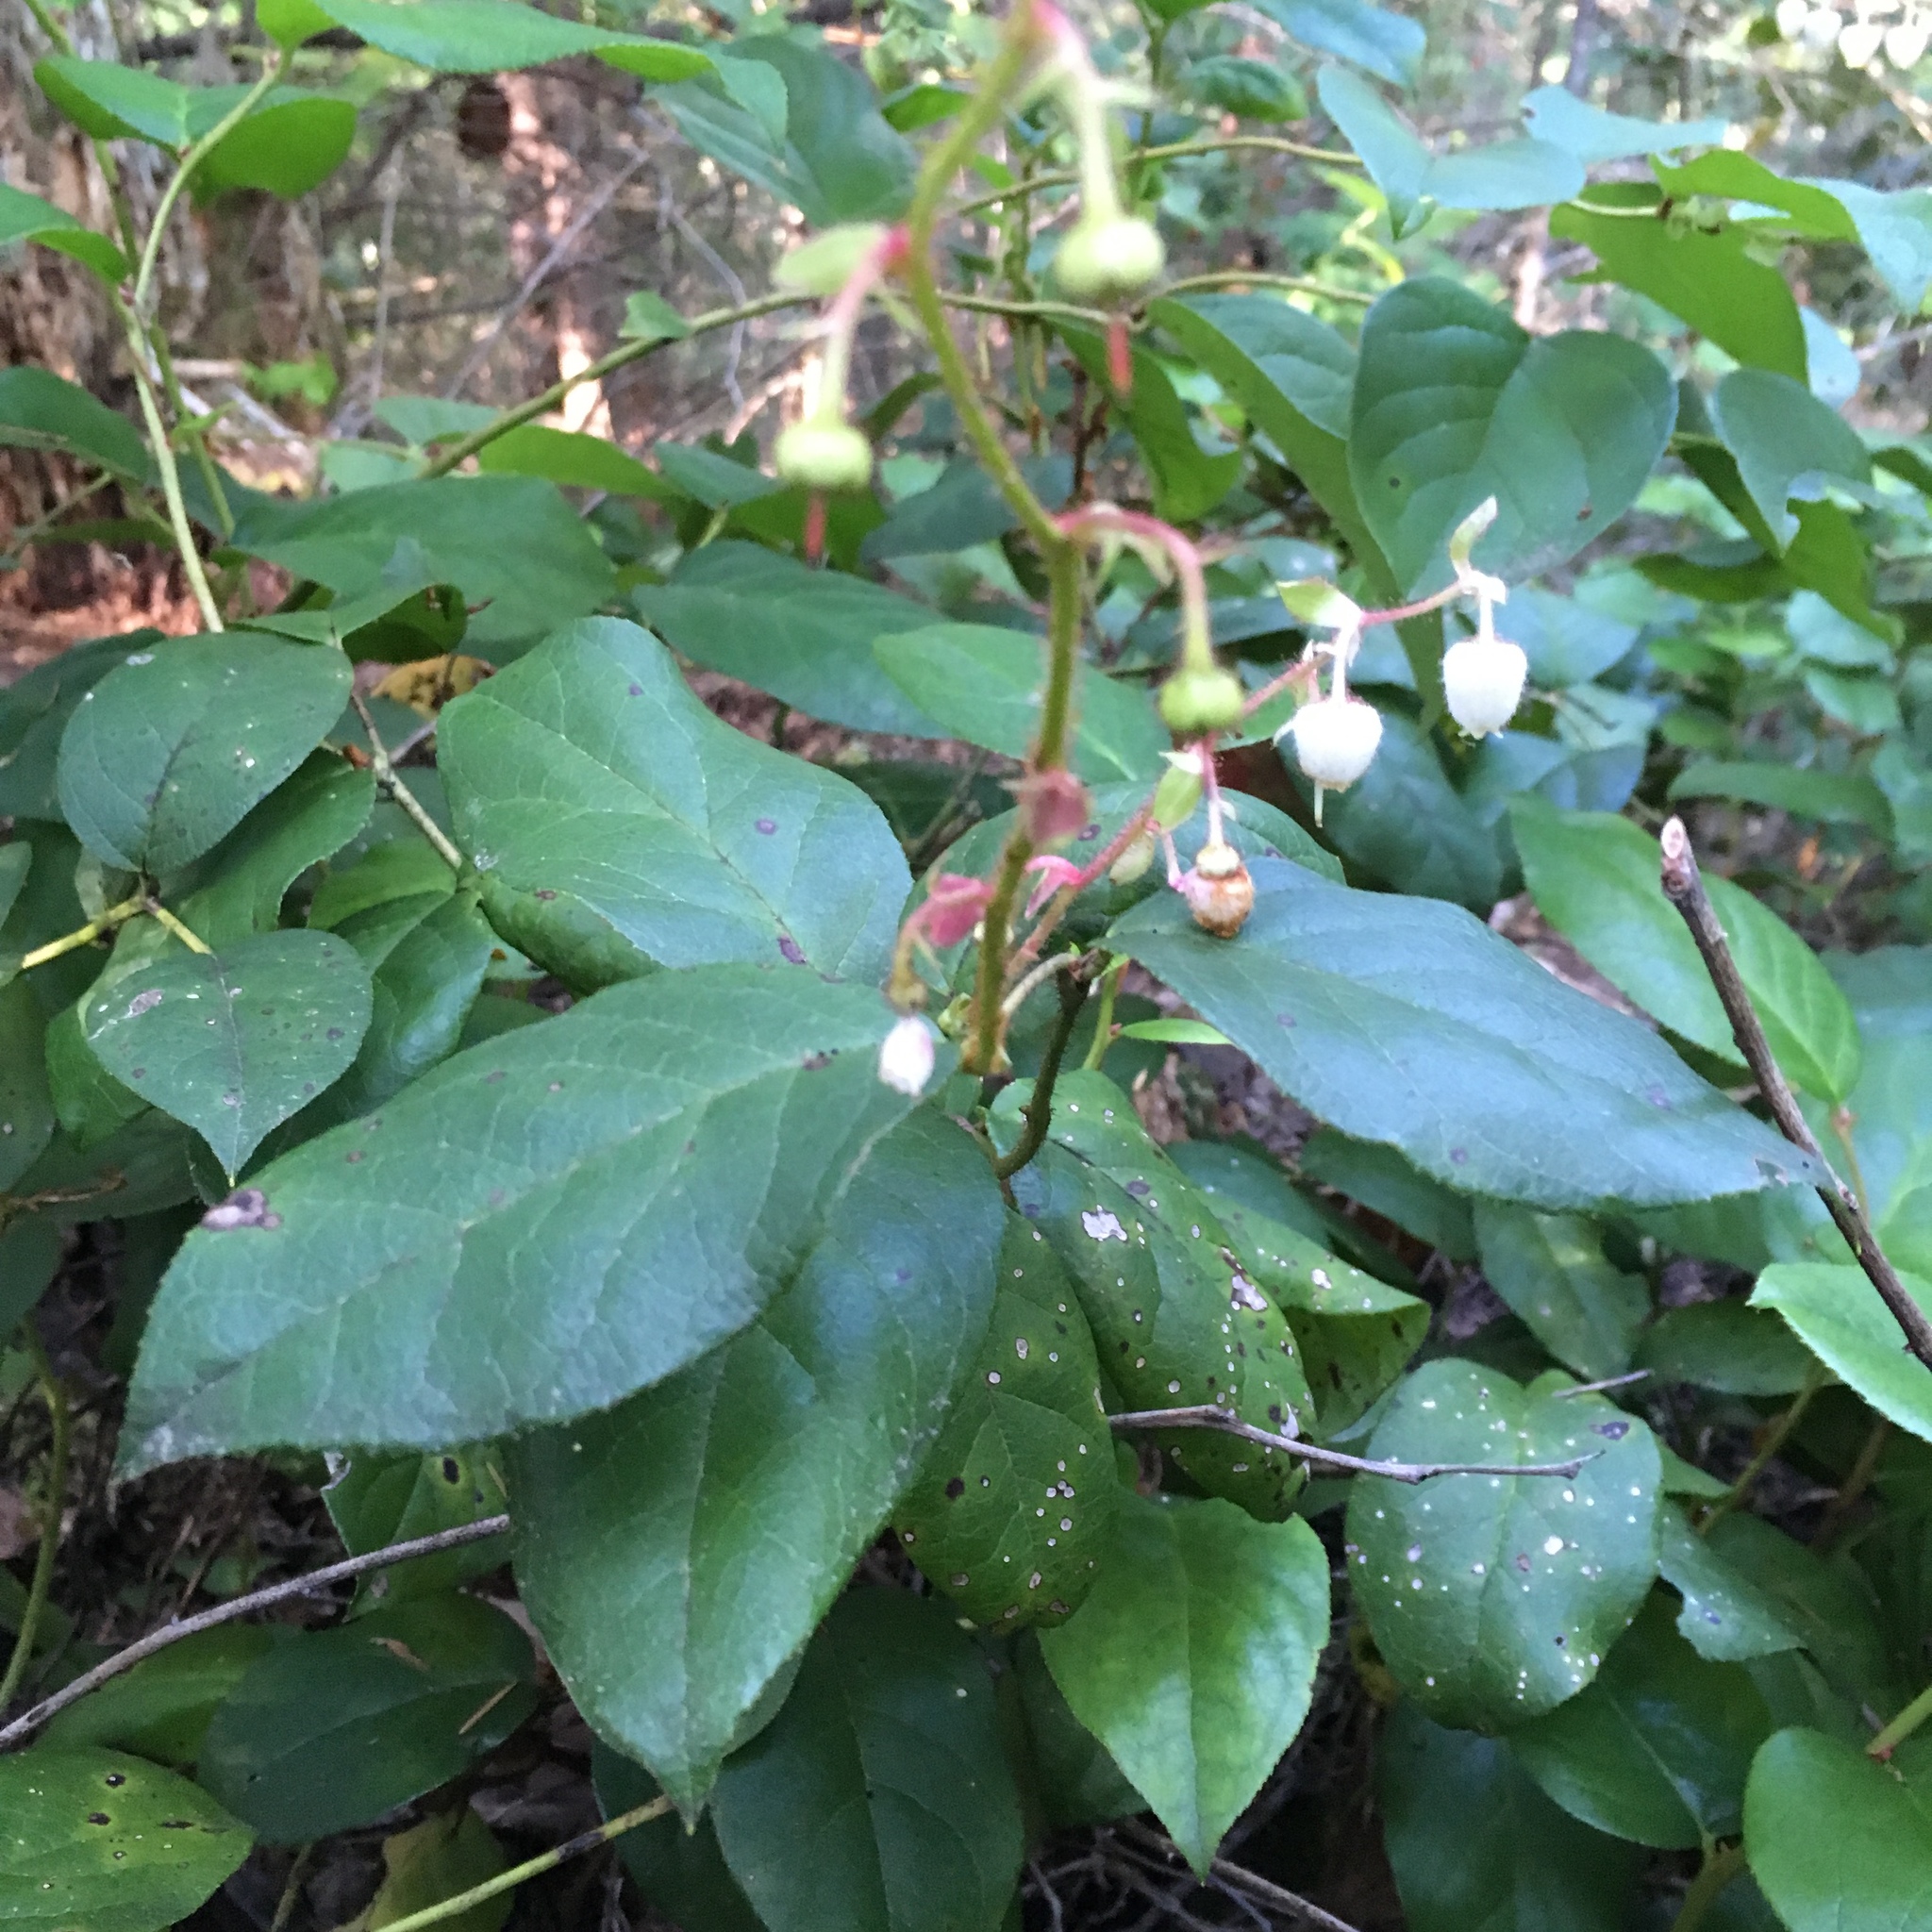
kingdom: Plantae
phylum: Tracheophyta
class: Magnoliopsida
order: Ericales
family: Ericaceae
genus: Gaultheria
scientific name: Gaultheria shallon
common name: Shallon
